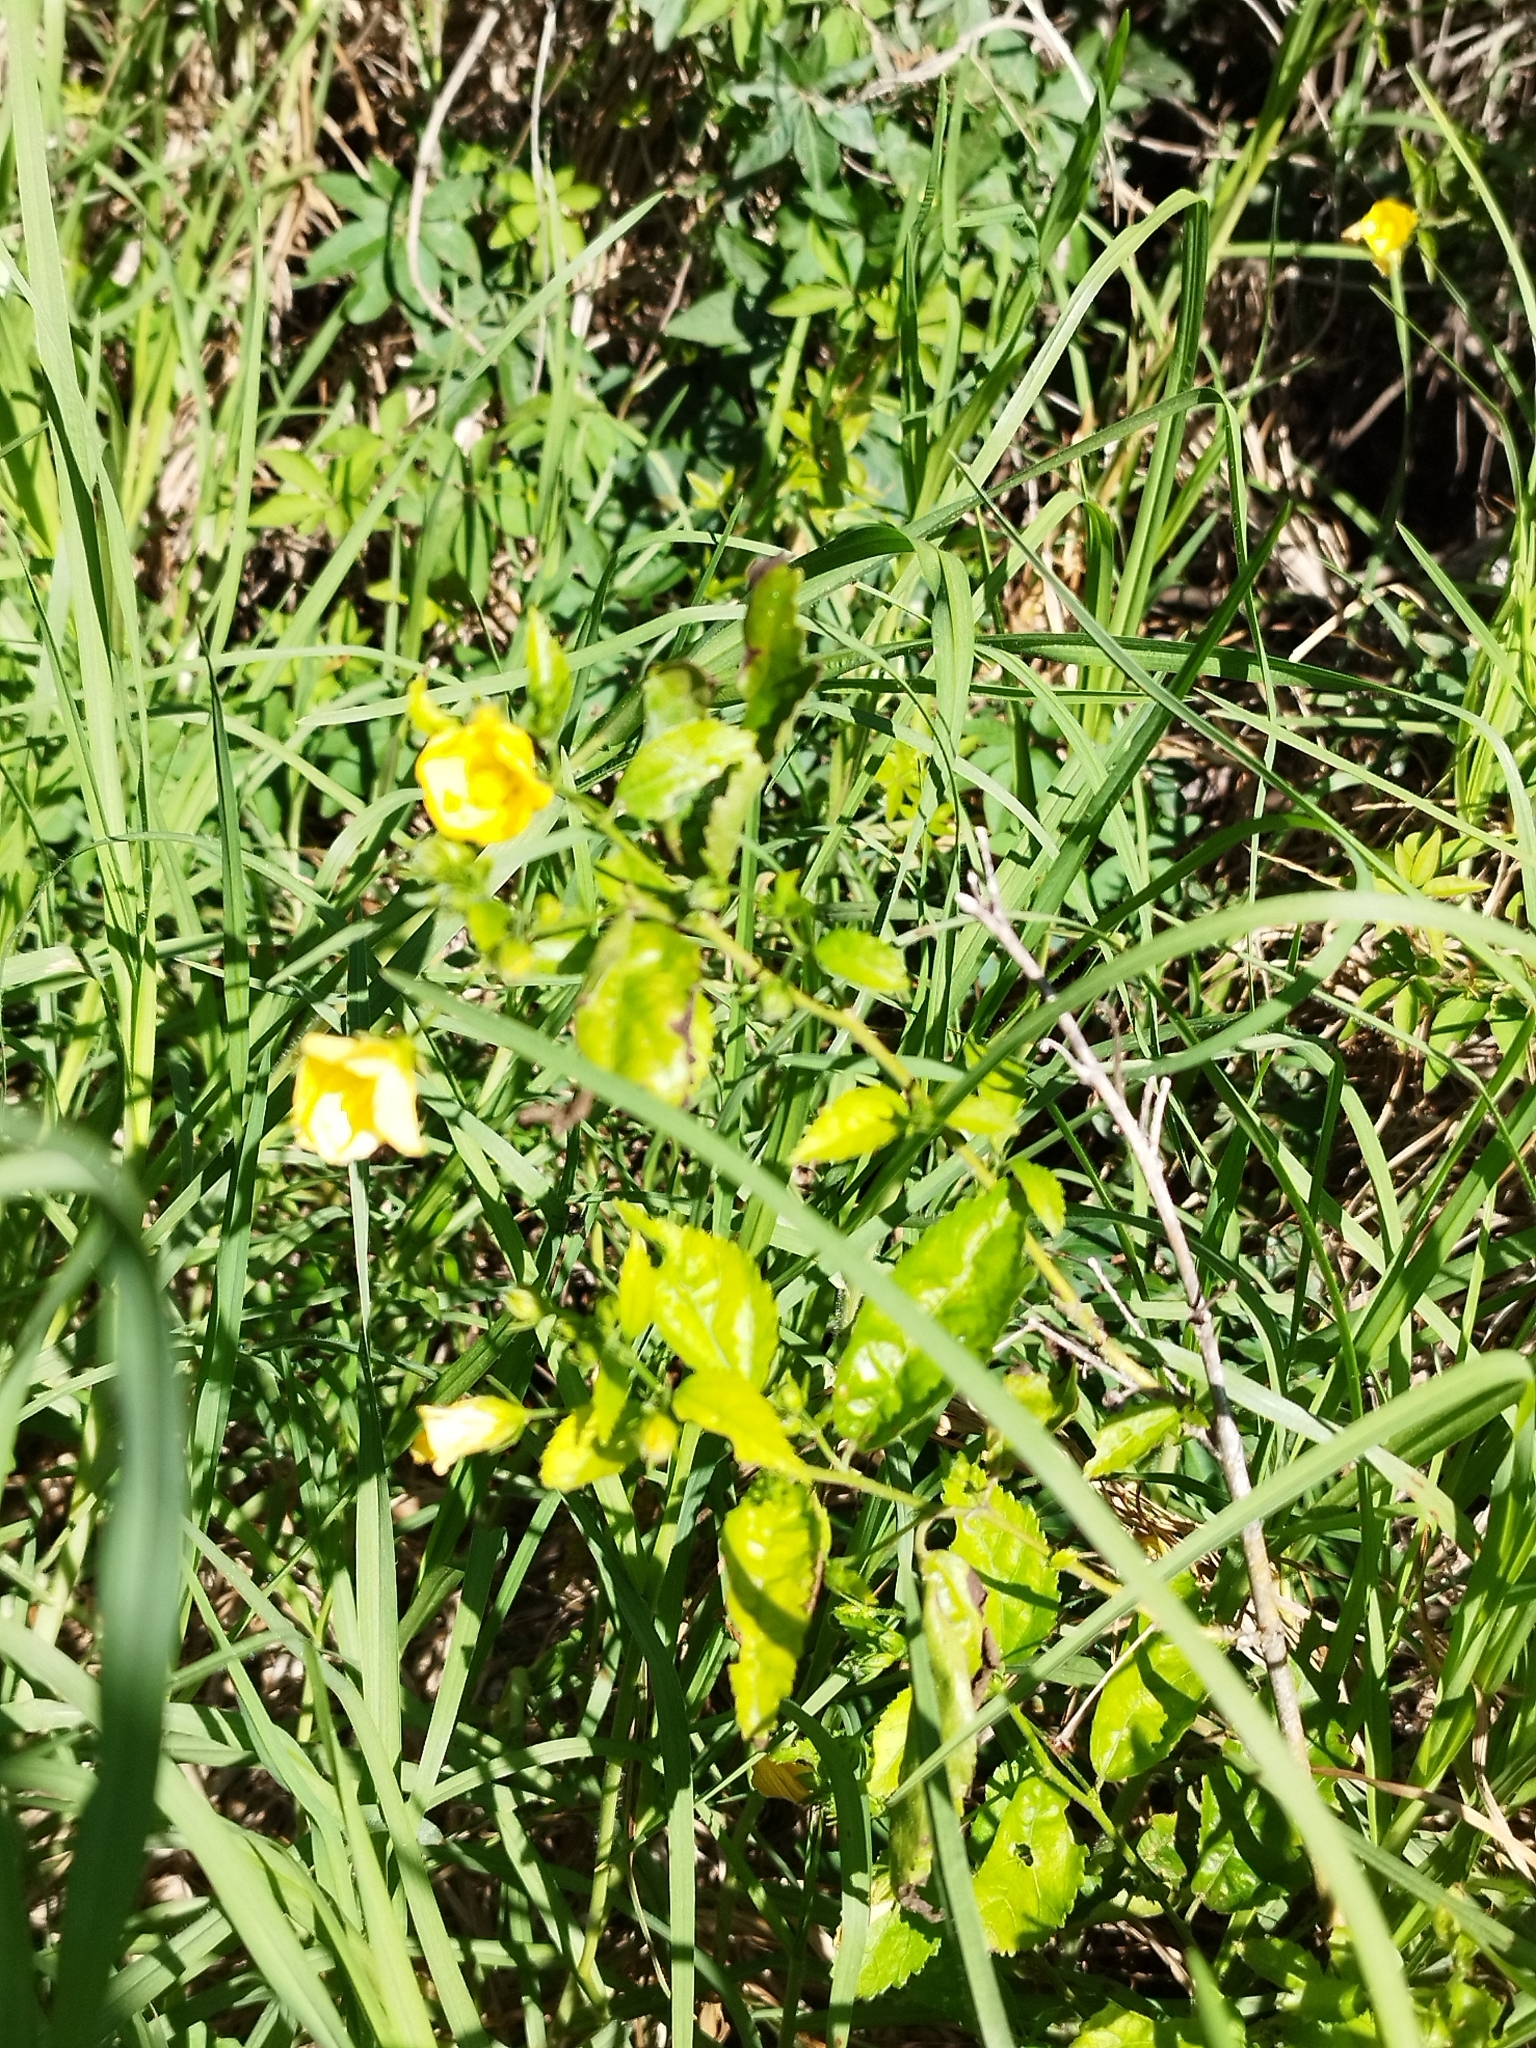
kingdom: Plantae
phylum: Tracheophyta
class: Magnoliopsida
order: Malvales
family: Malvaceae
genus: Pavonia
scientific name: Pavonia sepium
